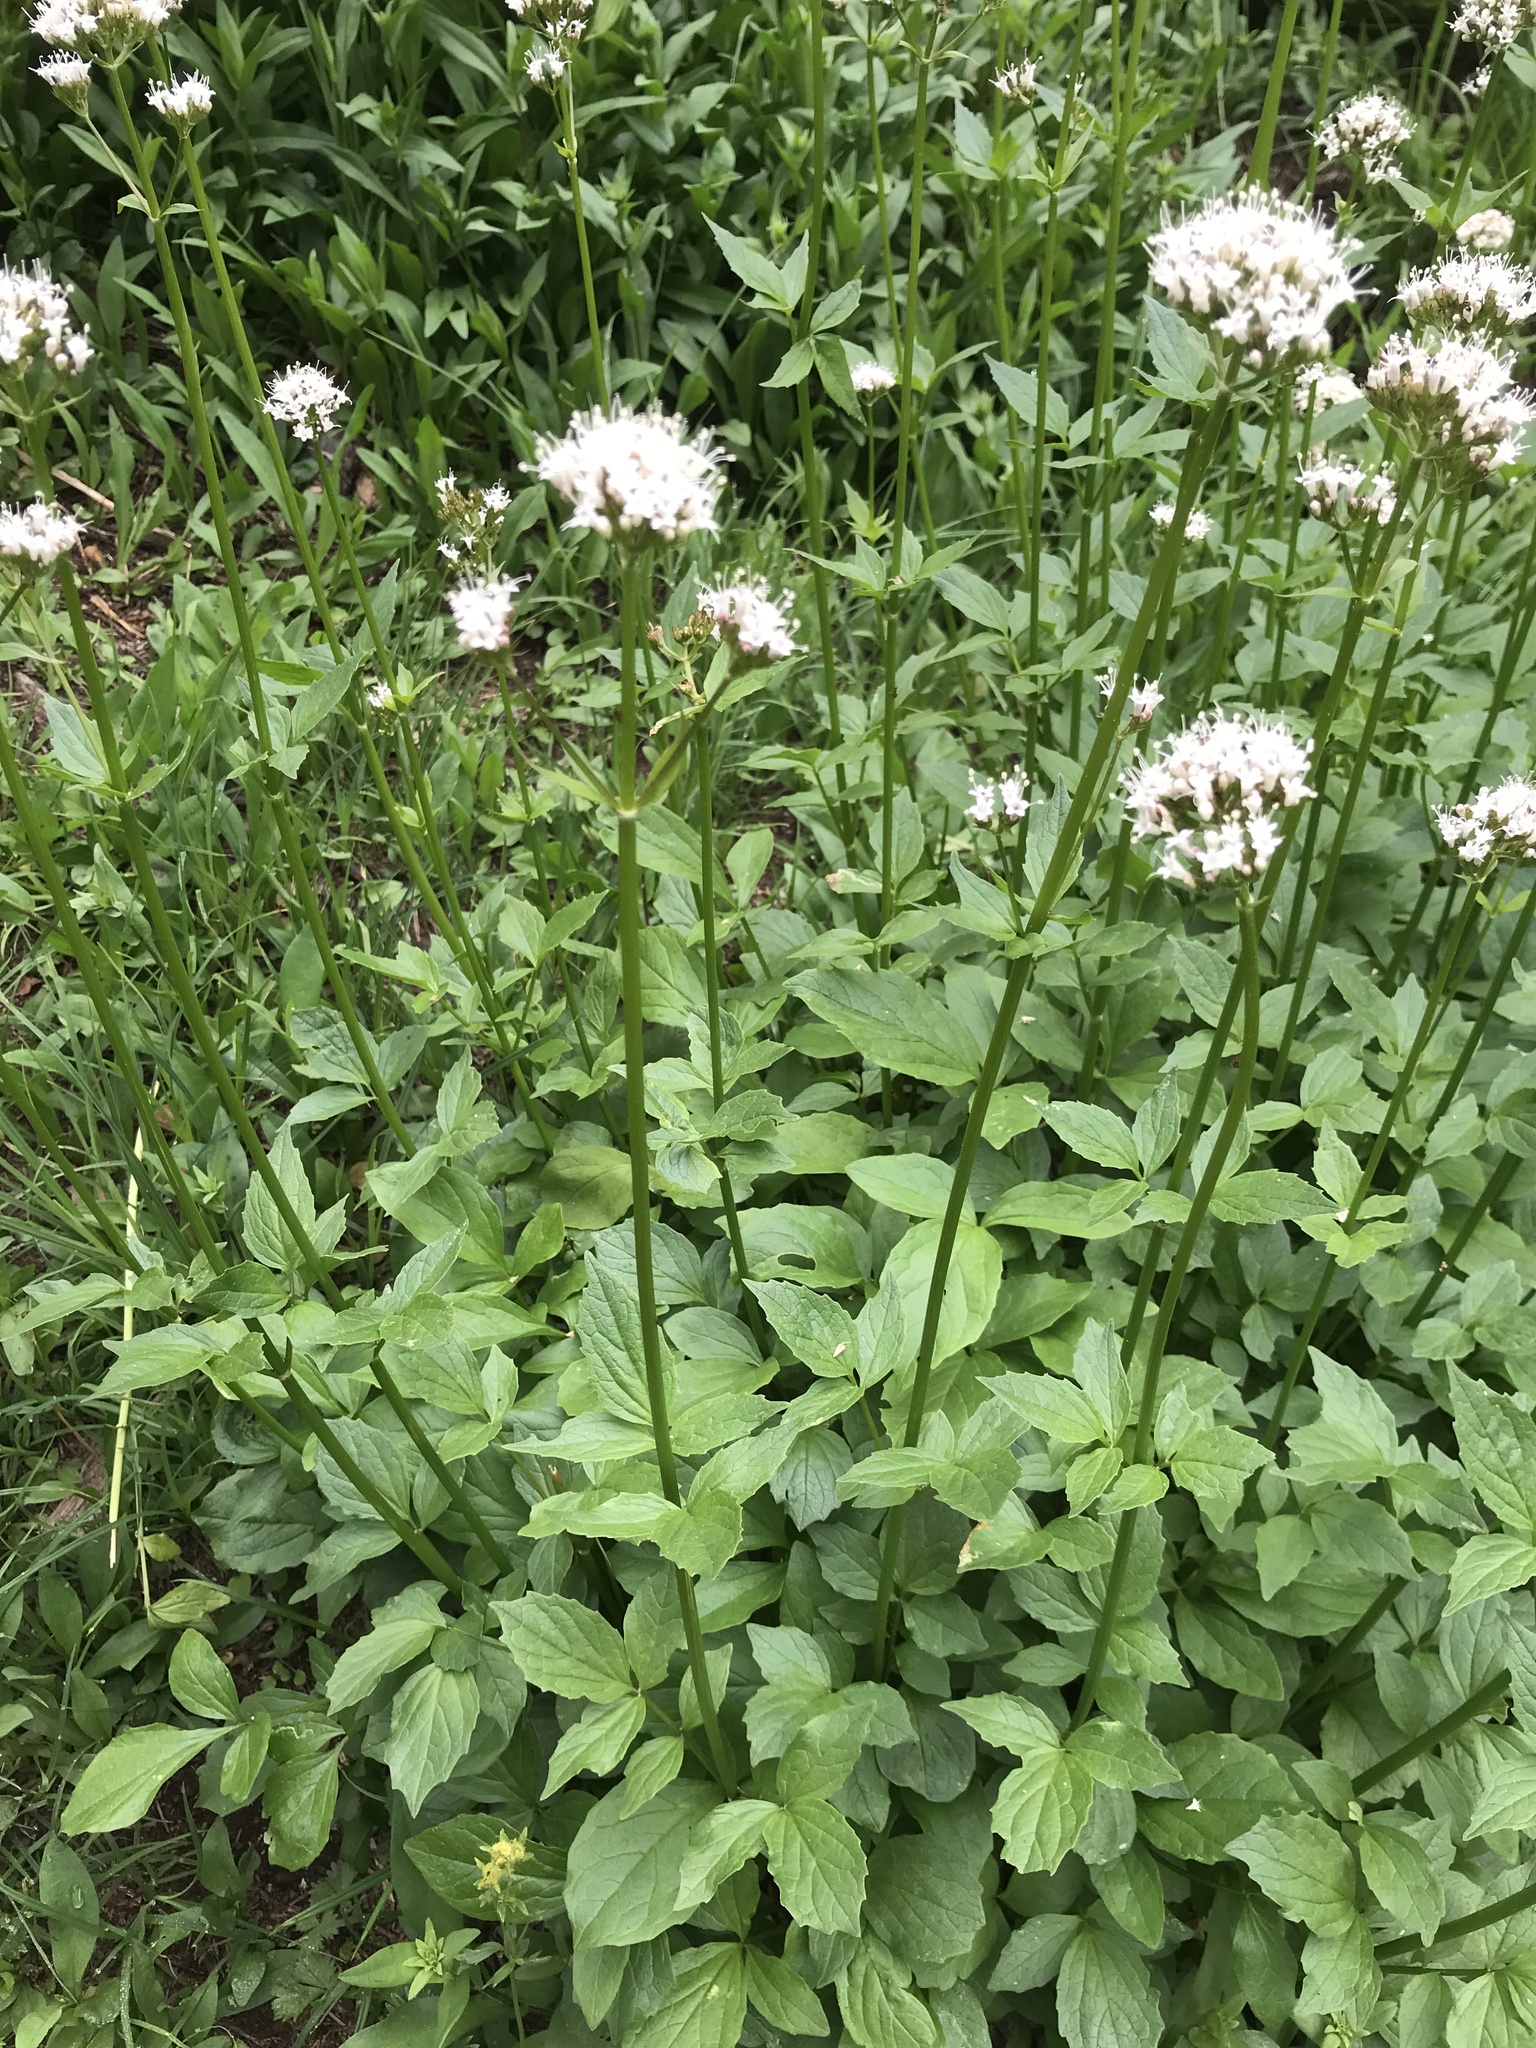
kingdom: Plantae
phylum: Tracheophyta
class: Magnoliopsida
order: Dipsacales
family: Caprifoliaceae
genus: Valeriana
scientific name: Valeriana sitchensis
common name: Pacific valerian
